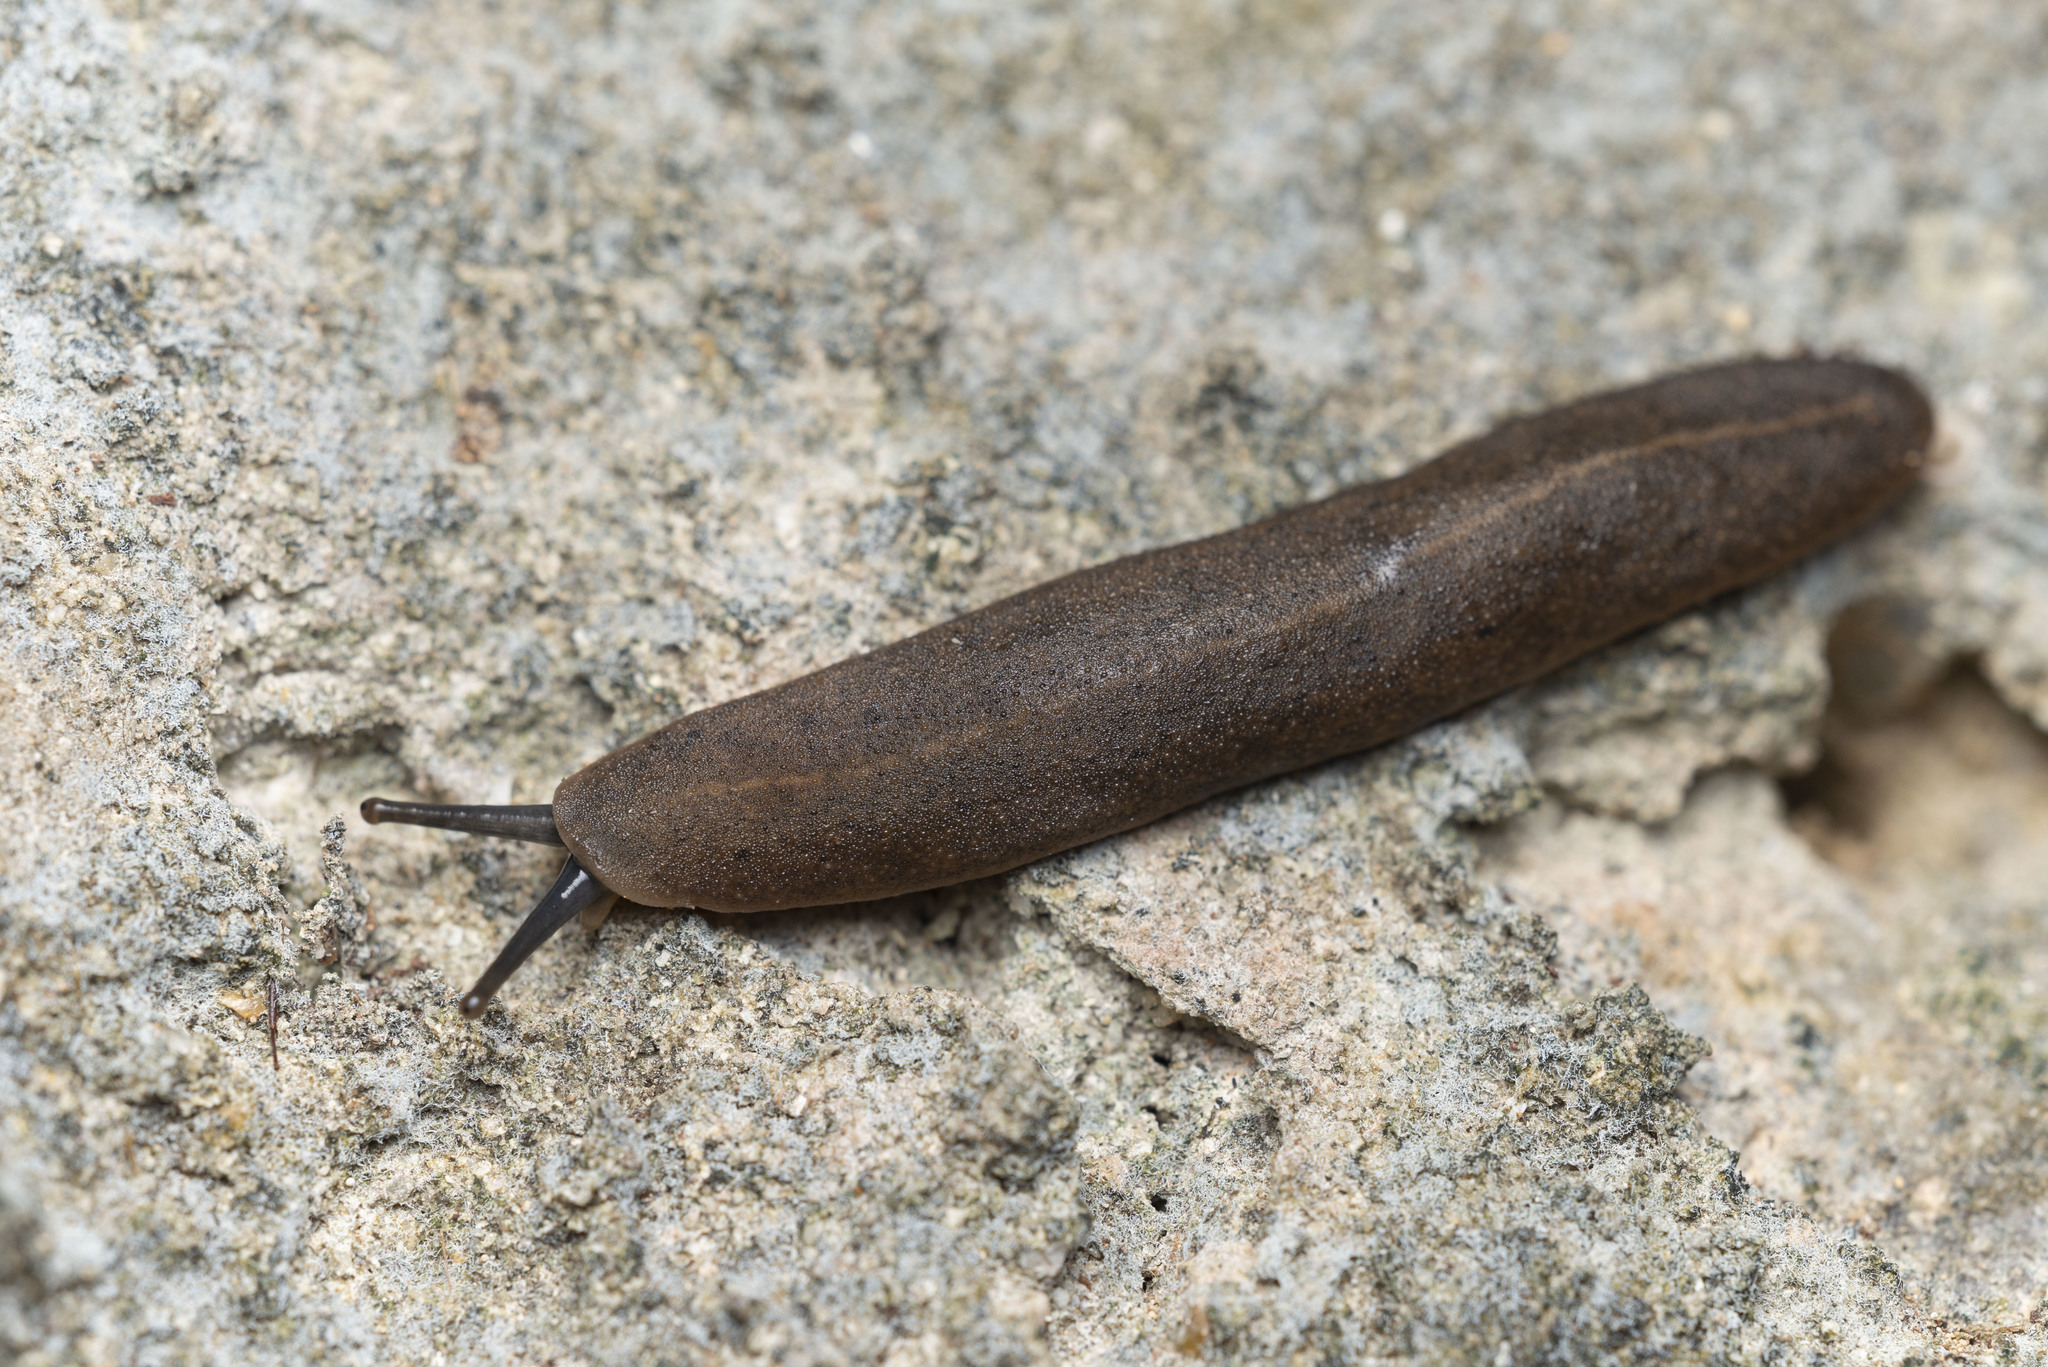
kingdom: Animalia
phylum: Mollusca
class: Gastropoda
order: Systellommatophora
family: Veronicellidae
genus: Valiguna
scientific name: Valiguna siamensis
